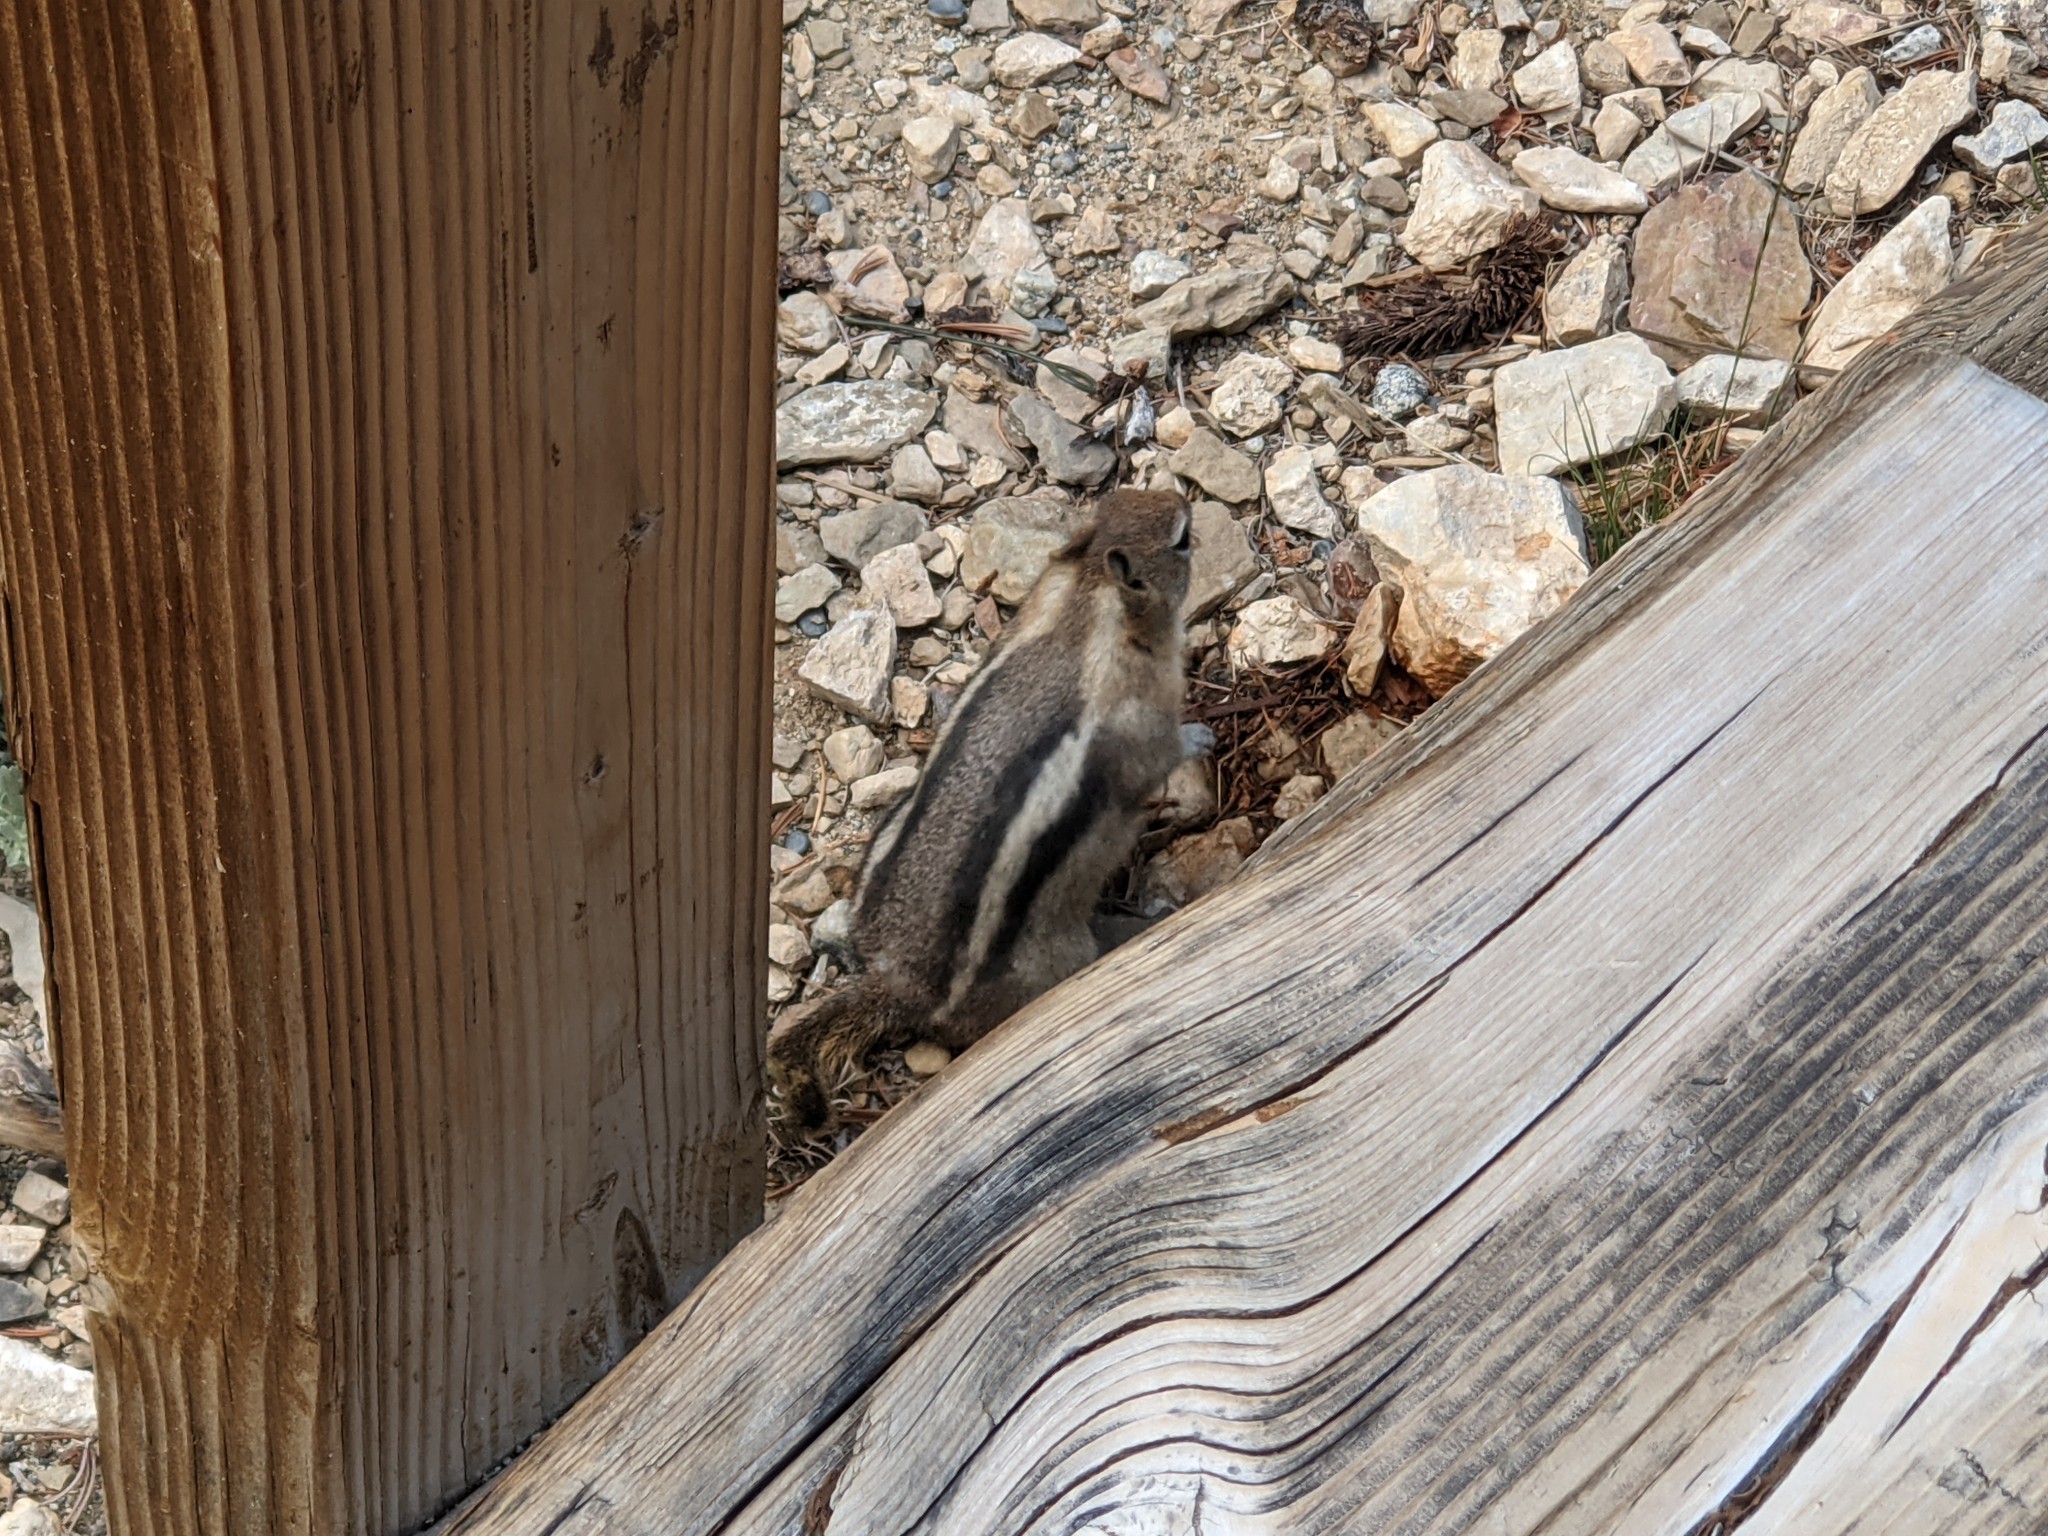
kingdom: Animalia
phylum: Chordata
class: Mammalia
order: Rodentia
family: Sciuridae
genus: Callospermophilus
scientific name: Callospermophilus lateralis
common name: Golden-mantled ground squirrel
